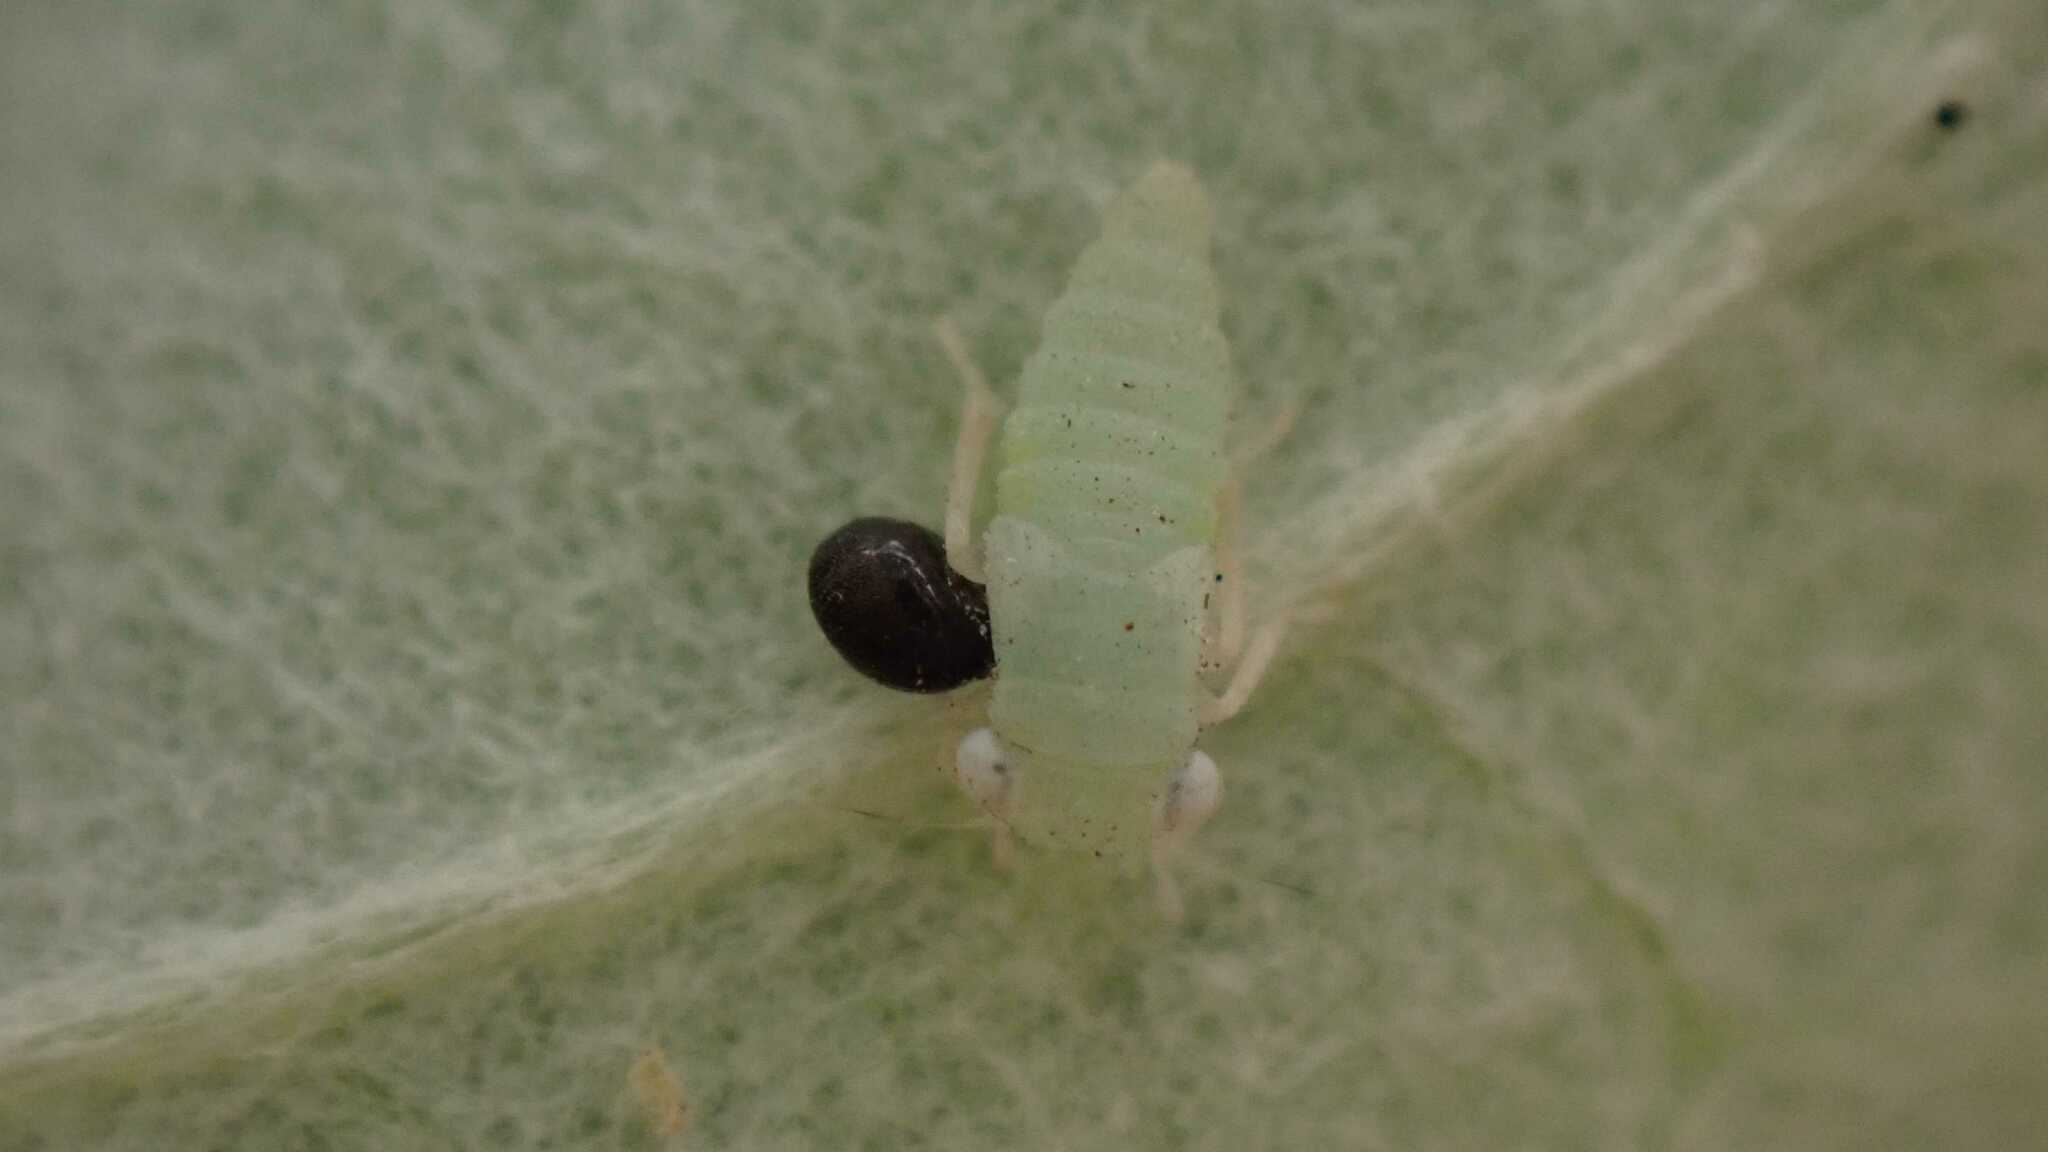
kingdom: Animalia
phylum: Arthropoda
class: Insecta
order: Hemiptera
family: Cicadellidae
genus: Populicerus
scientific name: Populicerus albicans
